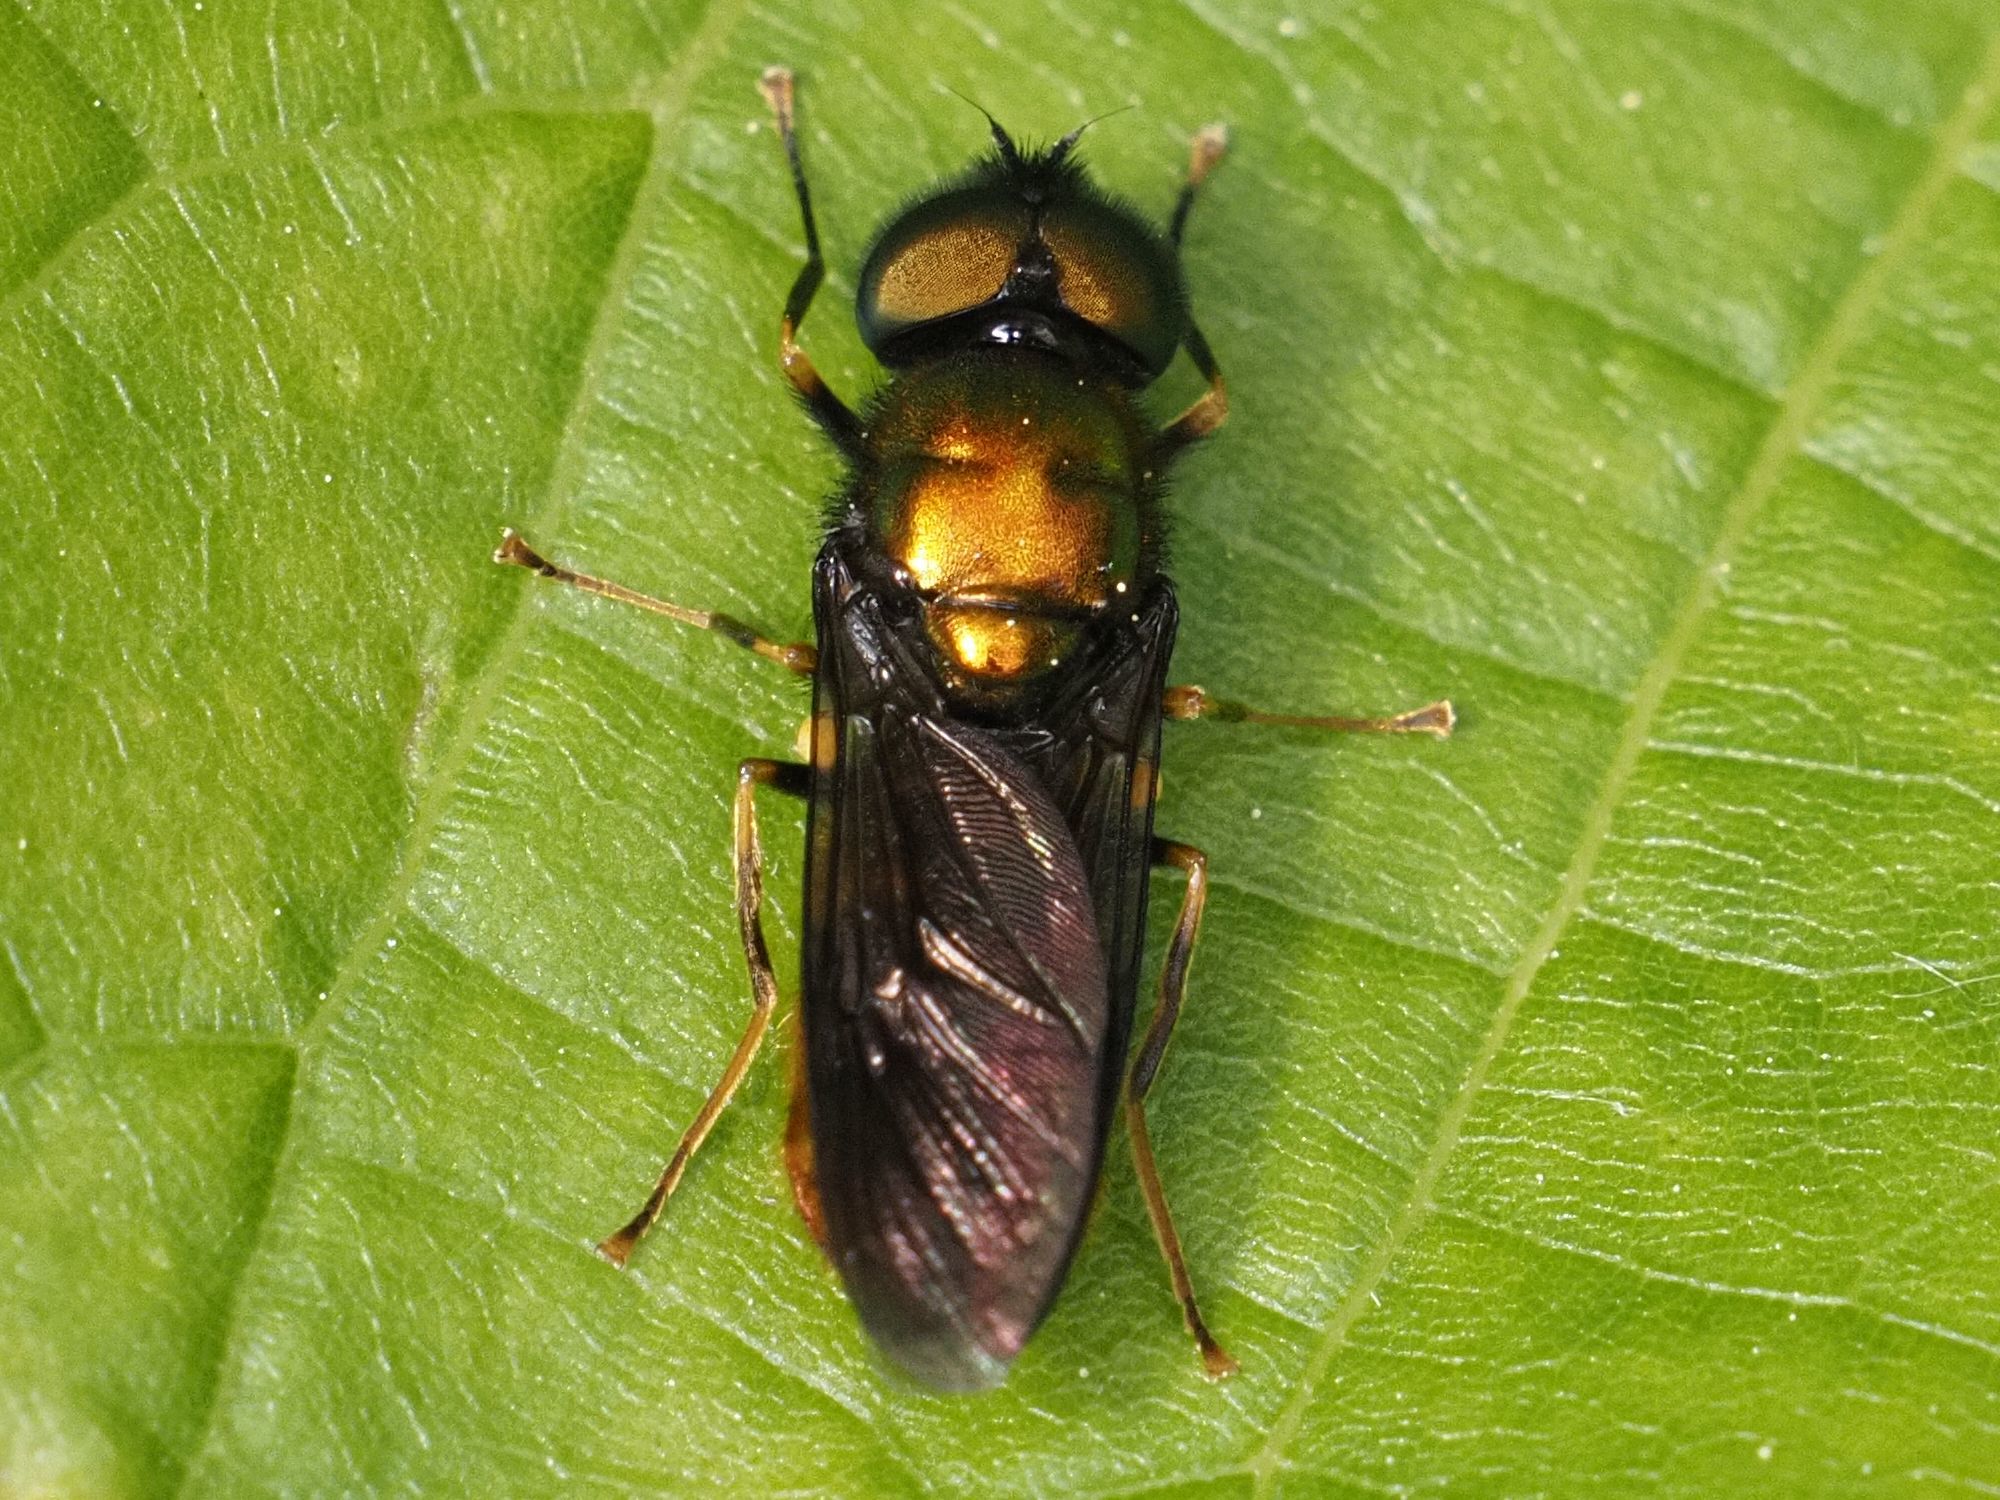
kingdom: Animalia
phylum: Arthropoda
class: Insecta
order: Diptera
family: Stratiomyidae
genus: Chloromyia
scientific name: Chloromyia speciosa
